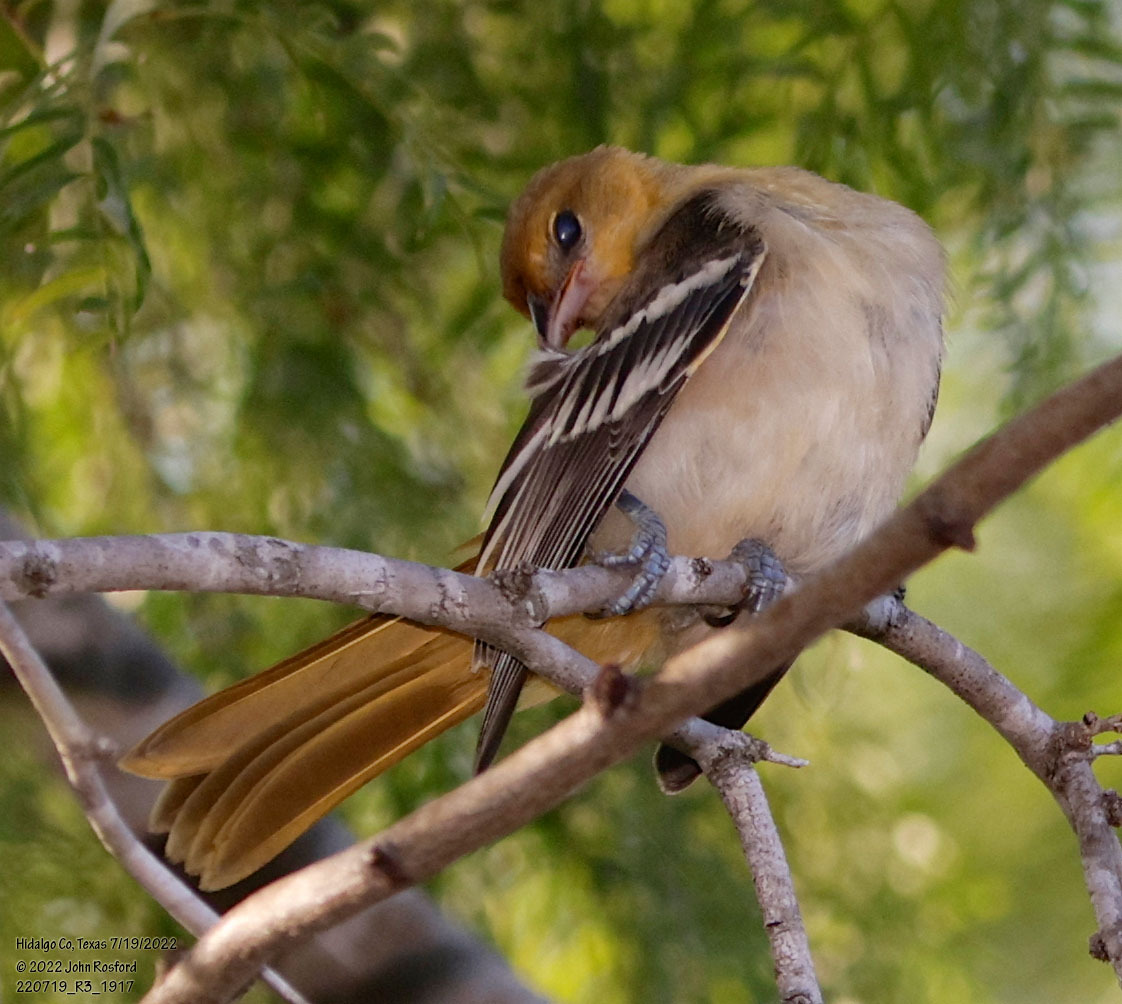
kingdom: Animalia
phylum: Chordata
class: Aves
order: Passeriformes
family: Icteridae
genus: Icterus
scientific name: Icterus bullockii
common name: Bullock's oriole
